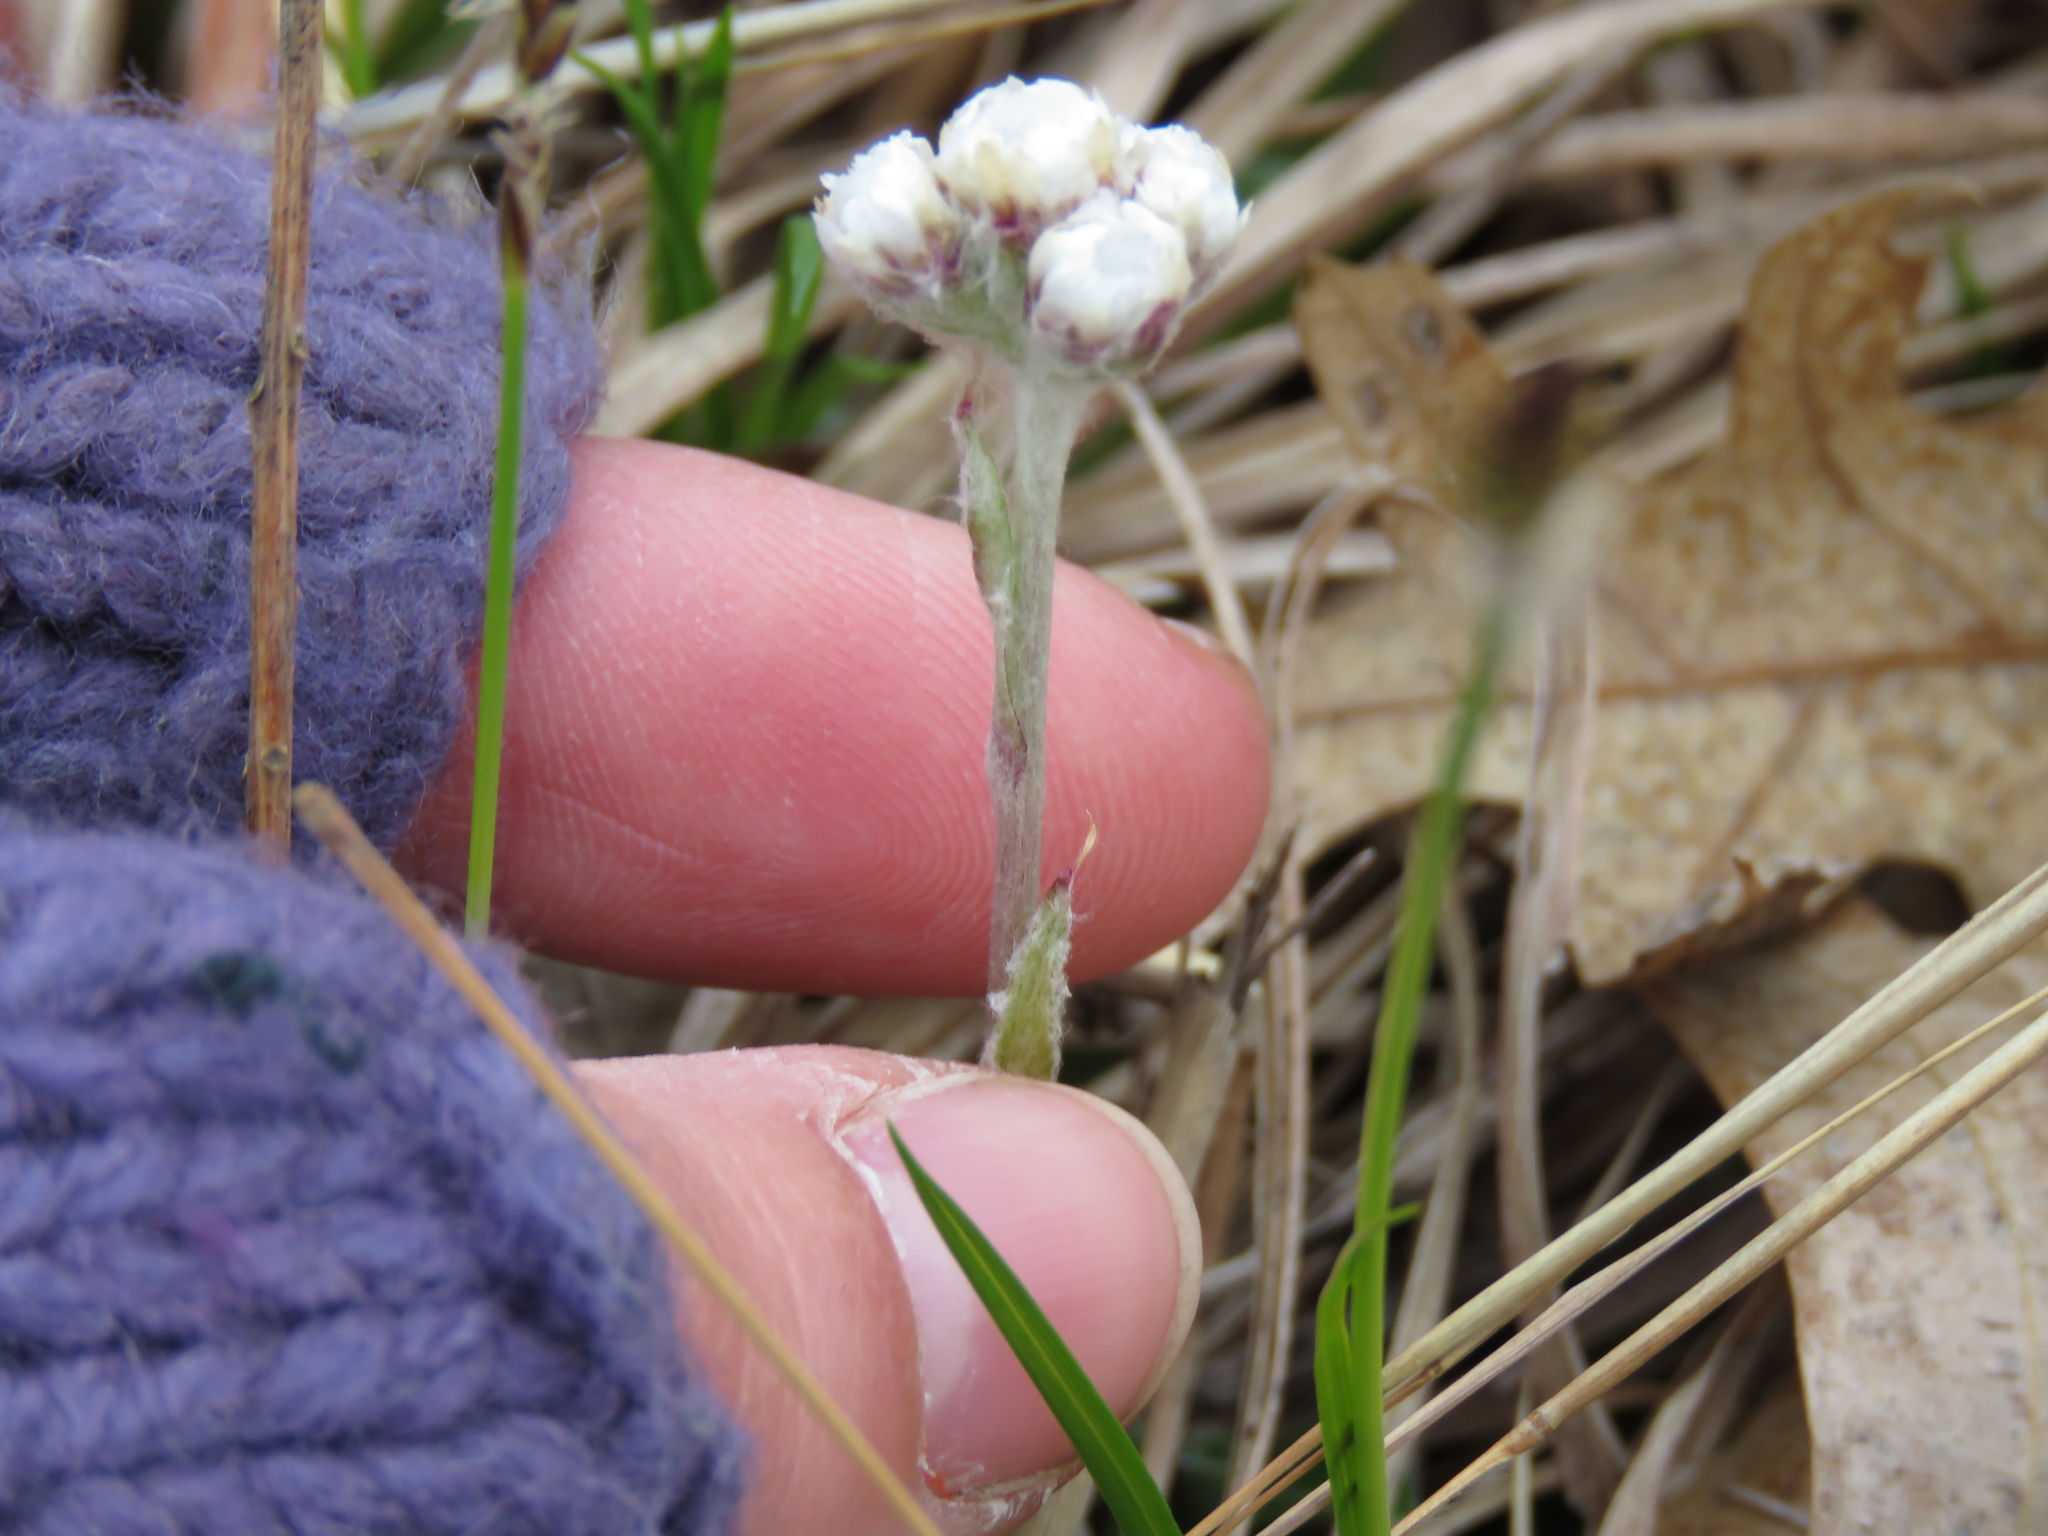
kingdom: Plantae
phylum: Tracheophyta
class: Magnoliopsida
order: Asterales
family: Asteraceae
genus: Antennaria
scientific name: Antennaria neglecta
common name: Field pussytoes
